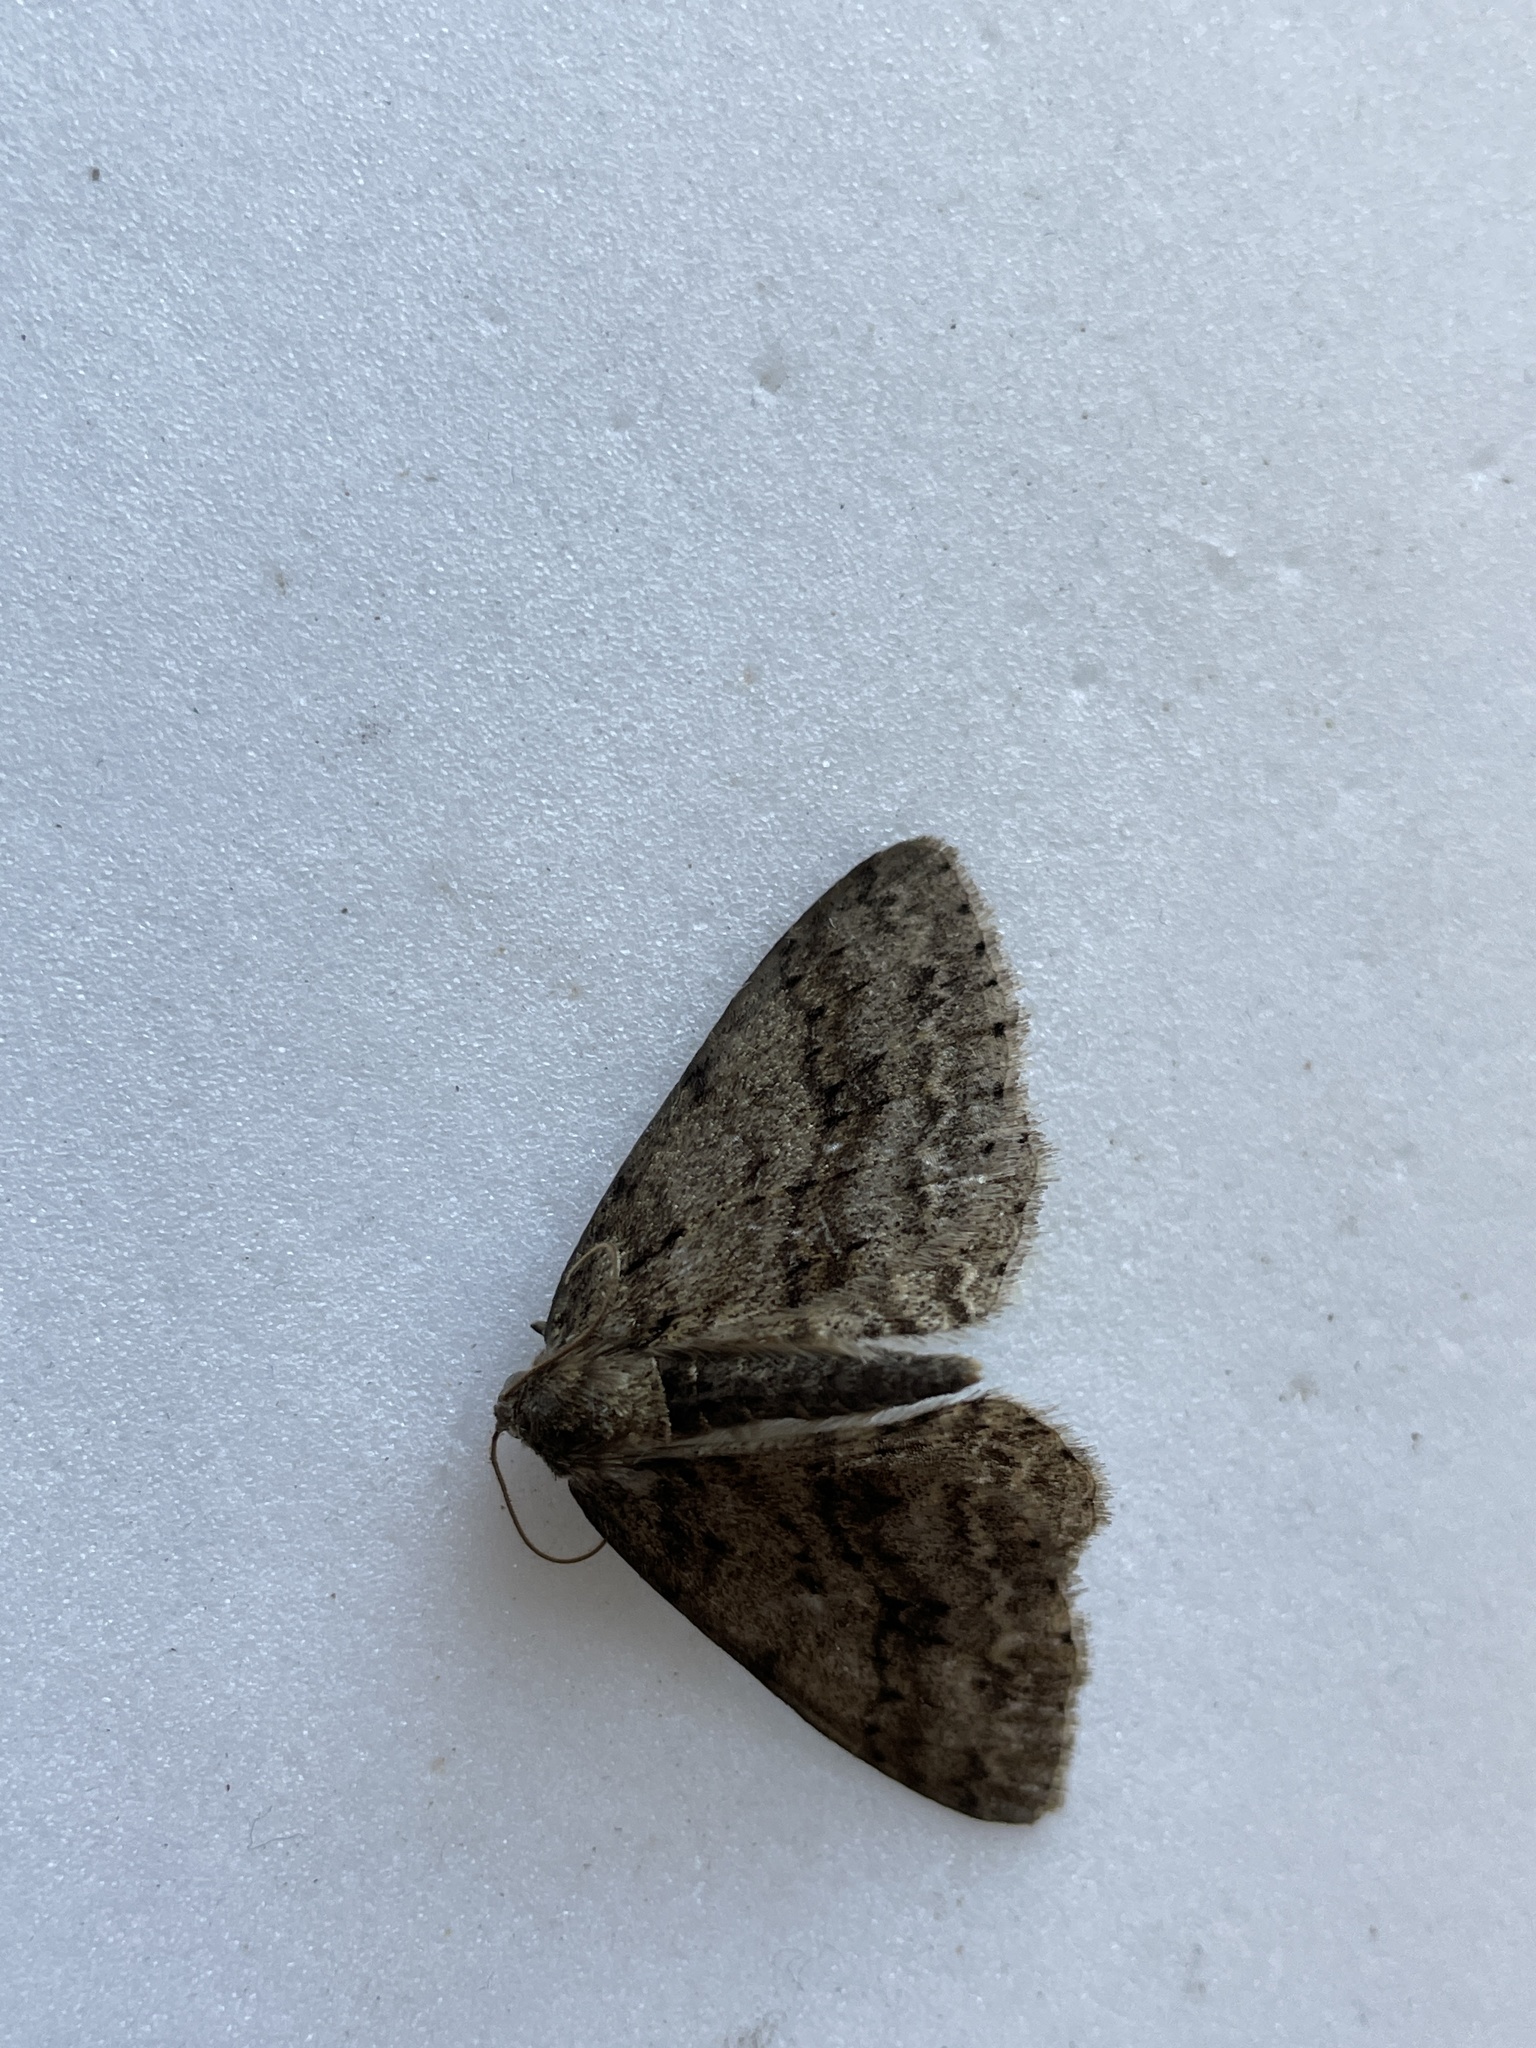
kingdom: Animalia
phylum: Arthropoda
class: Insecta
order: Lepidoptera
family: Geometridae
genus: Ectropis
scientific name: Ectropis crepuscularia
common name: Engrailed
